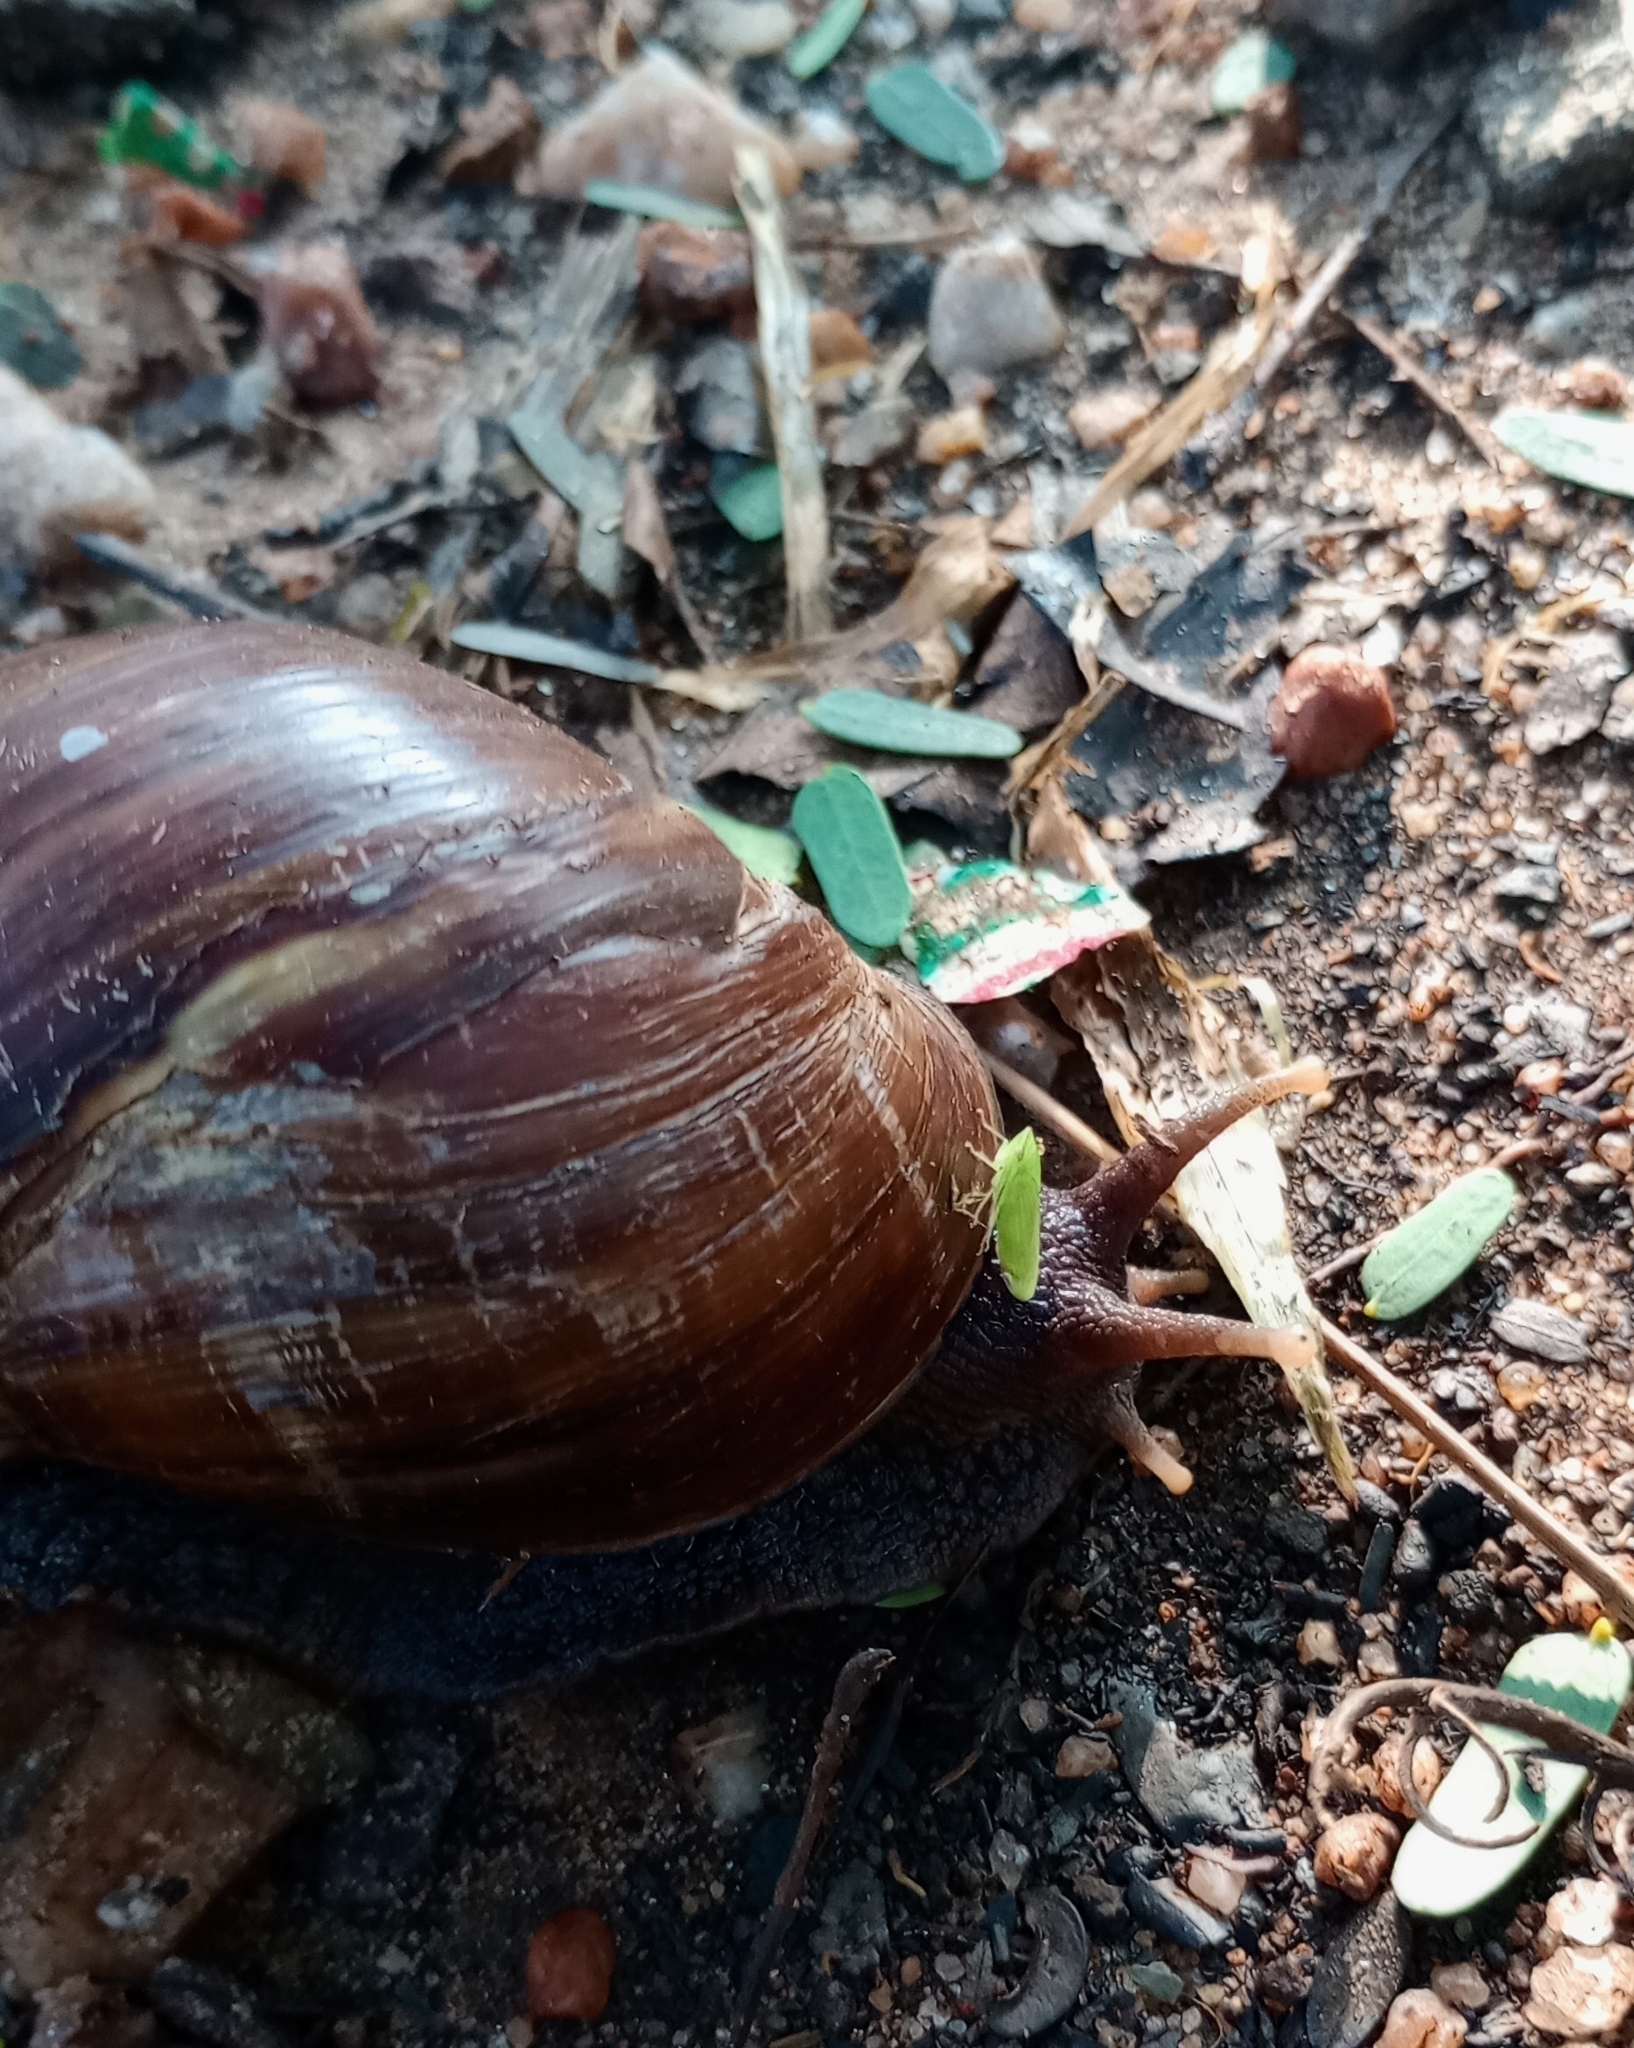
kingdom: Animalia
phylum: Mollusca
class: Gastropoda
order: Stylommatophora
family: Achatinidae
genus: Lissachatina
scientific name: Lissachatina fulica
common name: Giant african snail
